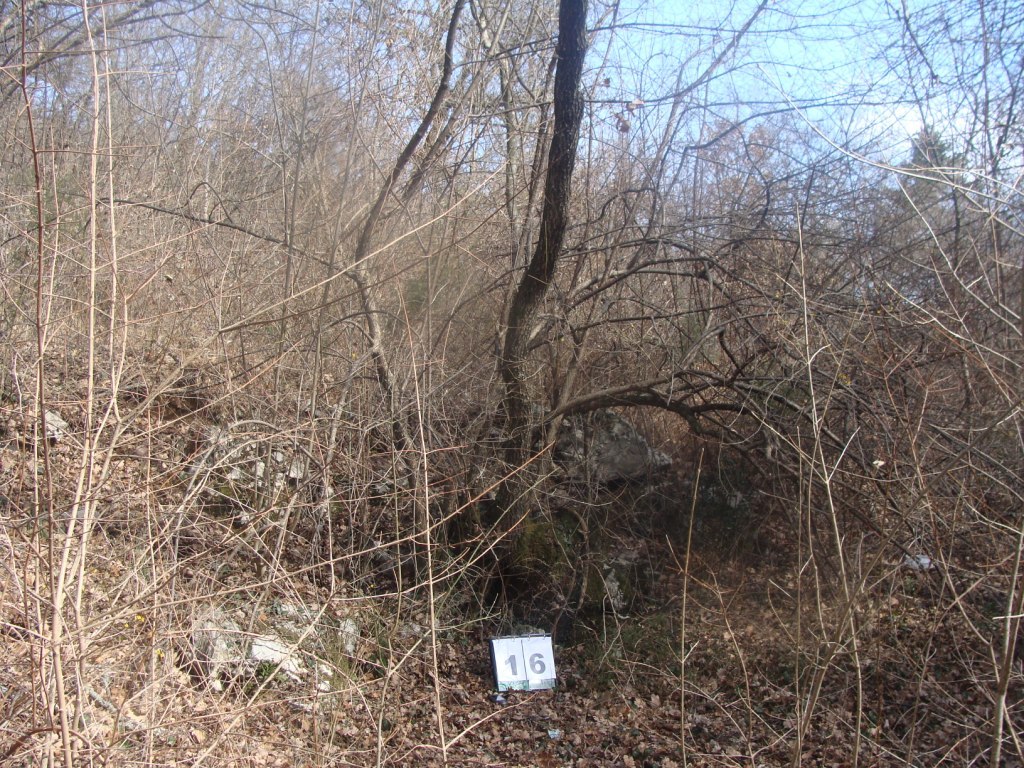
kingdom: Plantae
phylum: Tracheophyta
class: Magnoliopsida
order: Cornales
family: Cornaceae
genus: Cornus
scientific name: Cornus mas
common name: Cornelian-cherry
